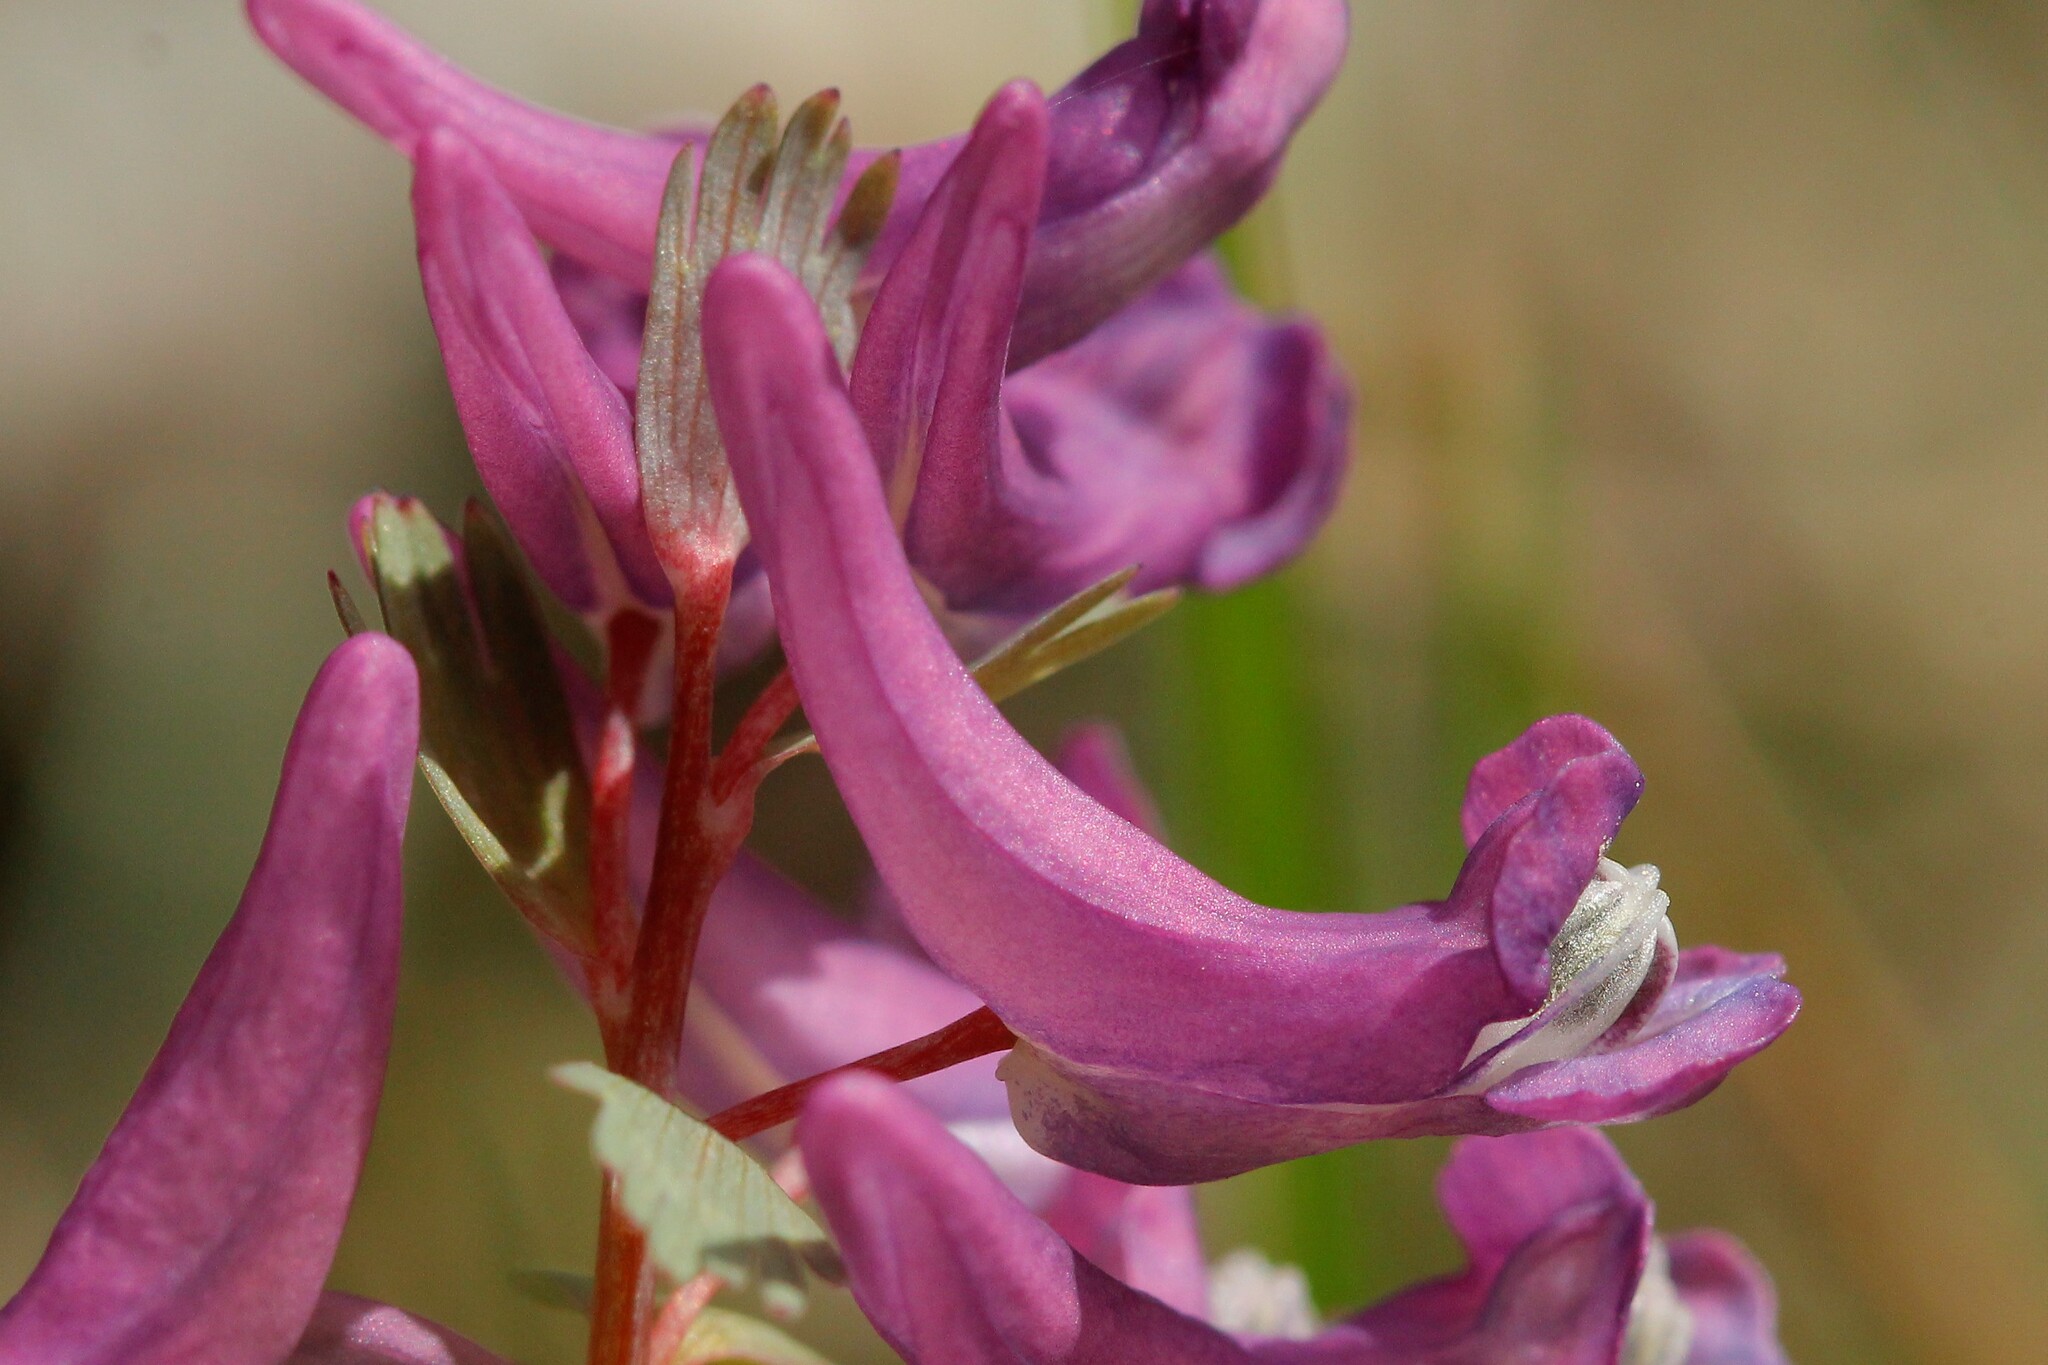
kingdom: Plantae
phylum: Tracheophyta
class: Magnoliopsida
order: Ranunculales
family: Papaveraceae
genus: Corydalis
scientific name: Corydalis solida
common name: Bird-in-a-bush
